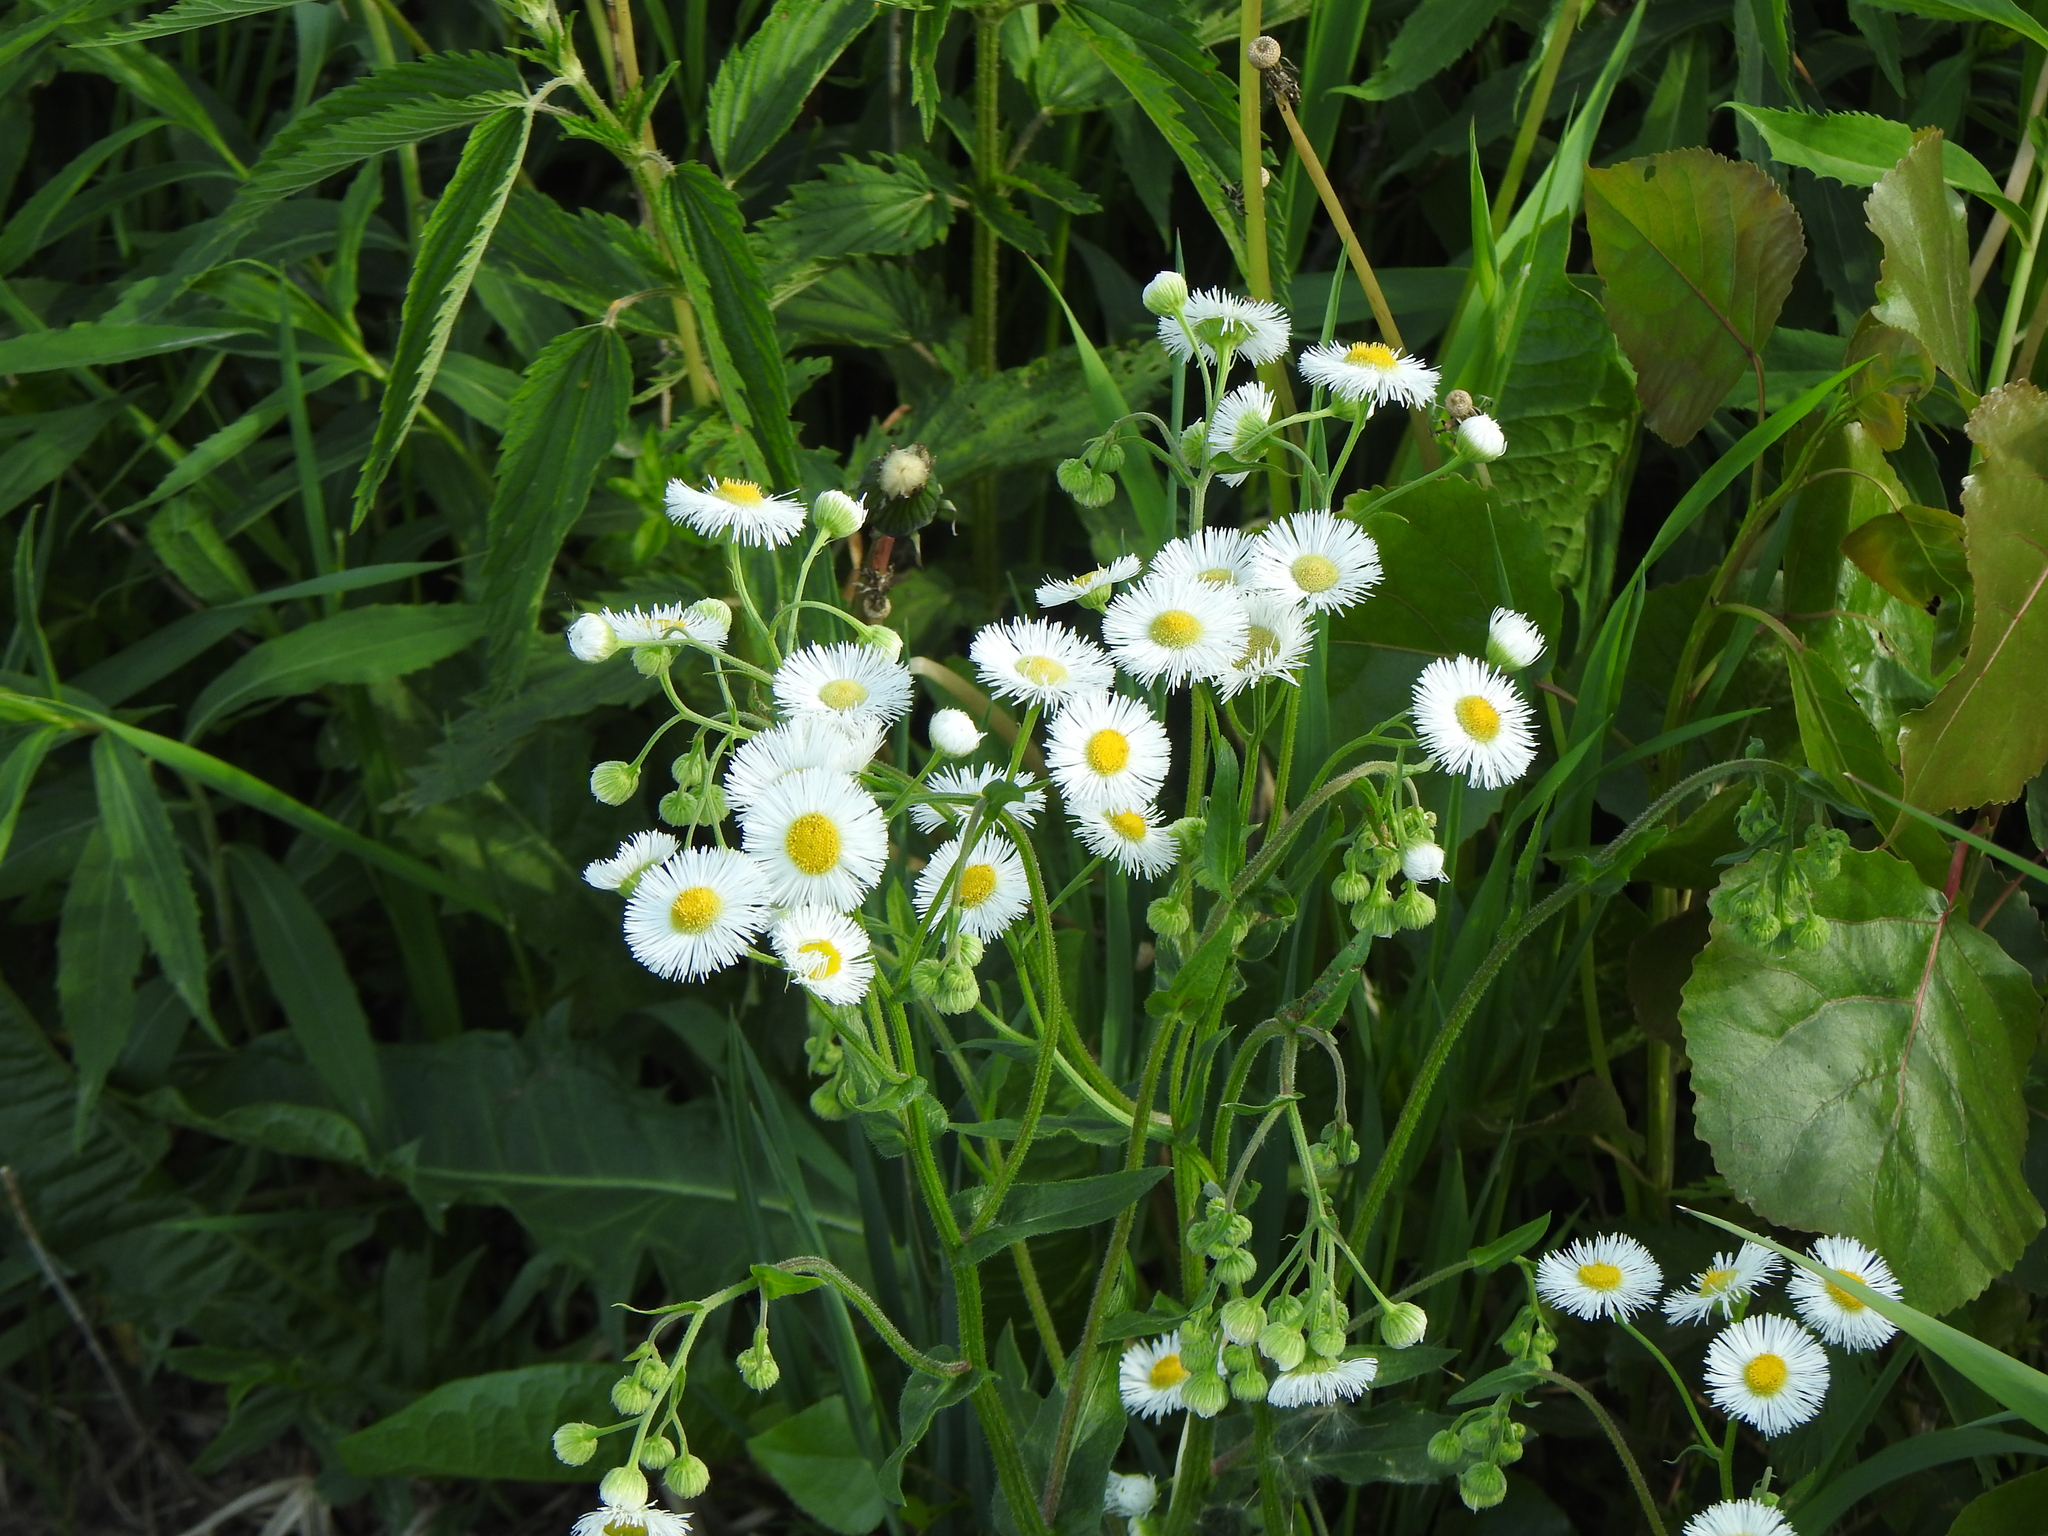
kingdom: Plantae
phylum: Tracheophyta
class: Magnoliopsida
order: Asterales
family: Asteraceae
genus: Erigeron
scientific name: Erigeron philadelphicus
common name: Robin's-plantain
